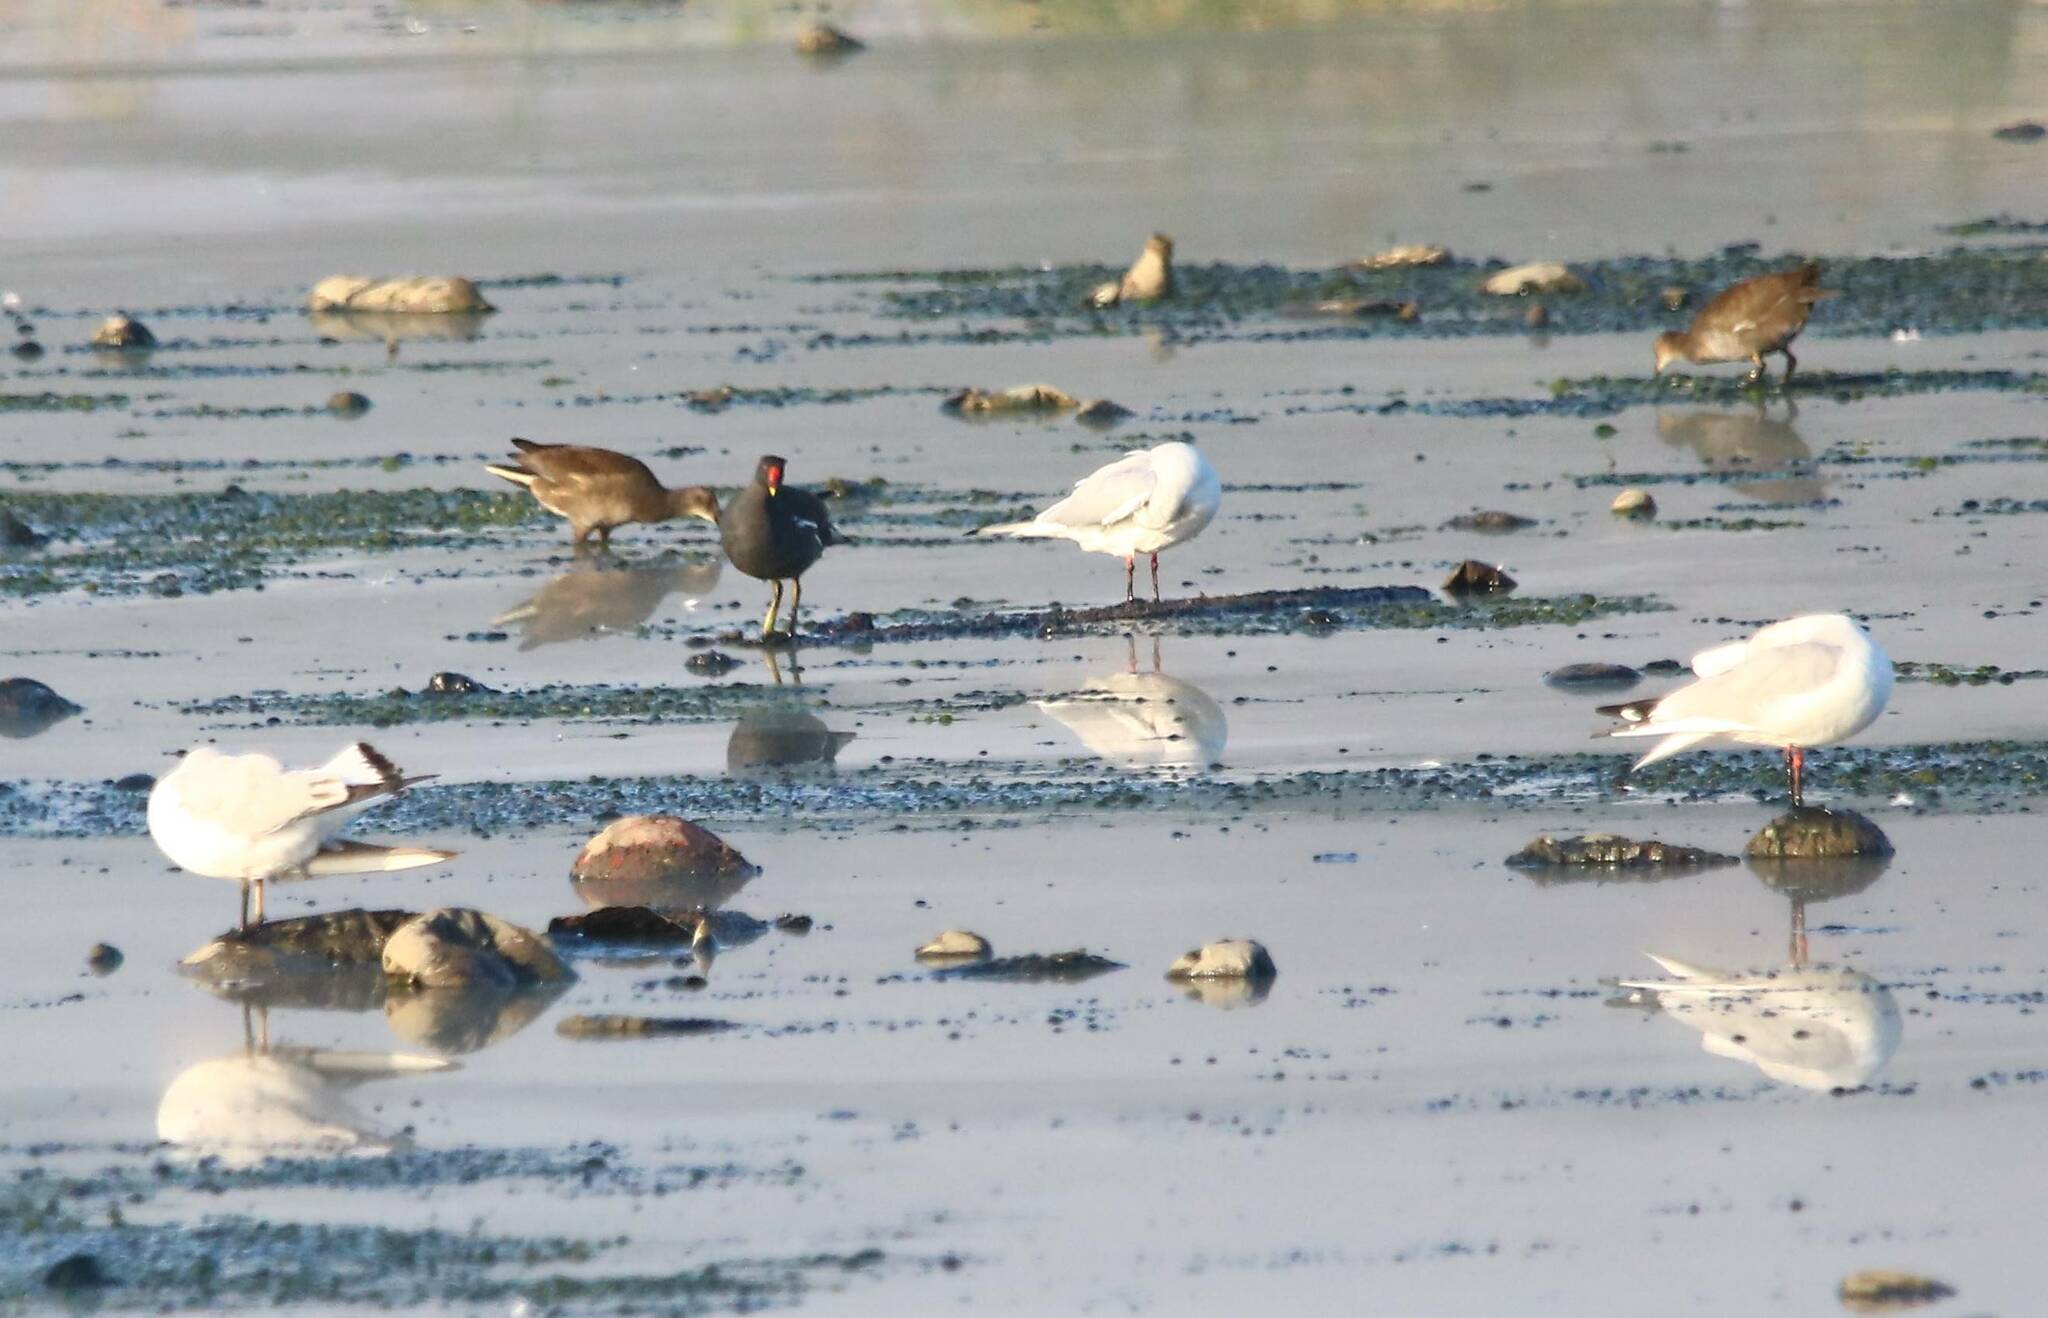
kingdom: Animalia
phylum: Chordata
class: Aves
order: Gruiformes
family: Rallidae
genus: Gallinula
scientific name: Gallinula chloropus
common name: Common moorhen
